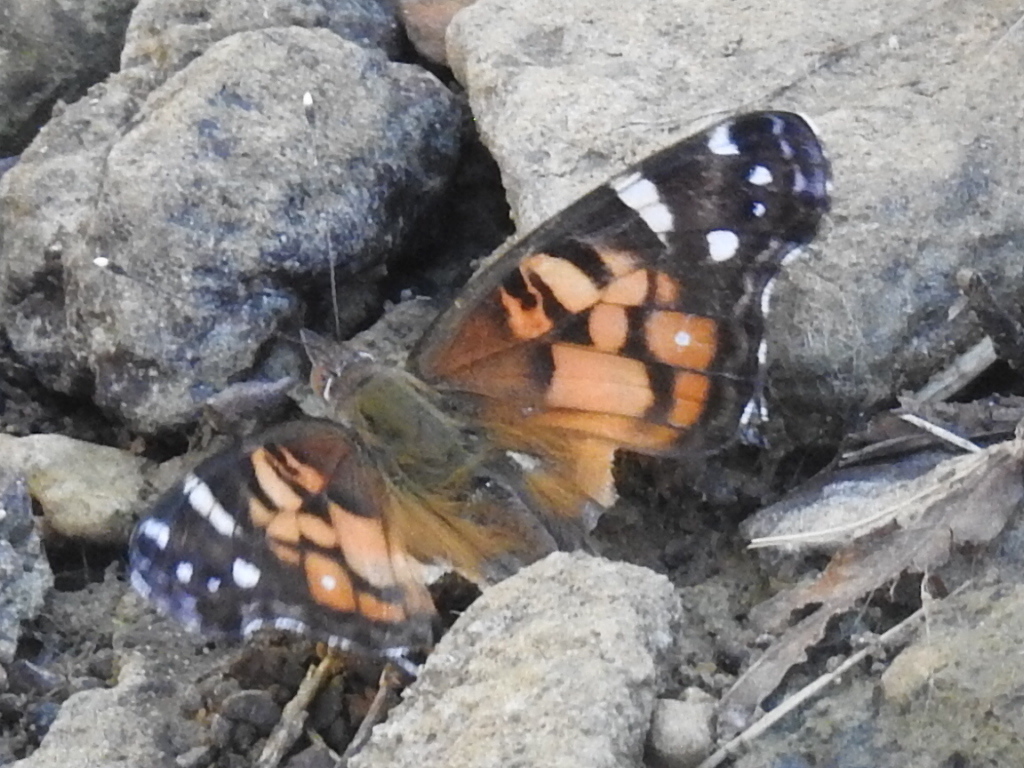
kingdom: Animalia
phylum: Arthropoda
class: Insecta
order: Lepidoptera
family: Nymphalidae
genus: Vanessa
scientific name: Vanessa virginiensis
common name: American lady
